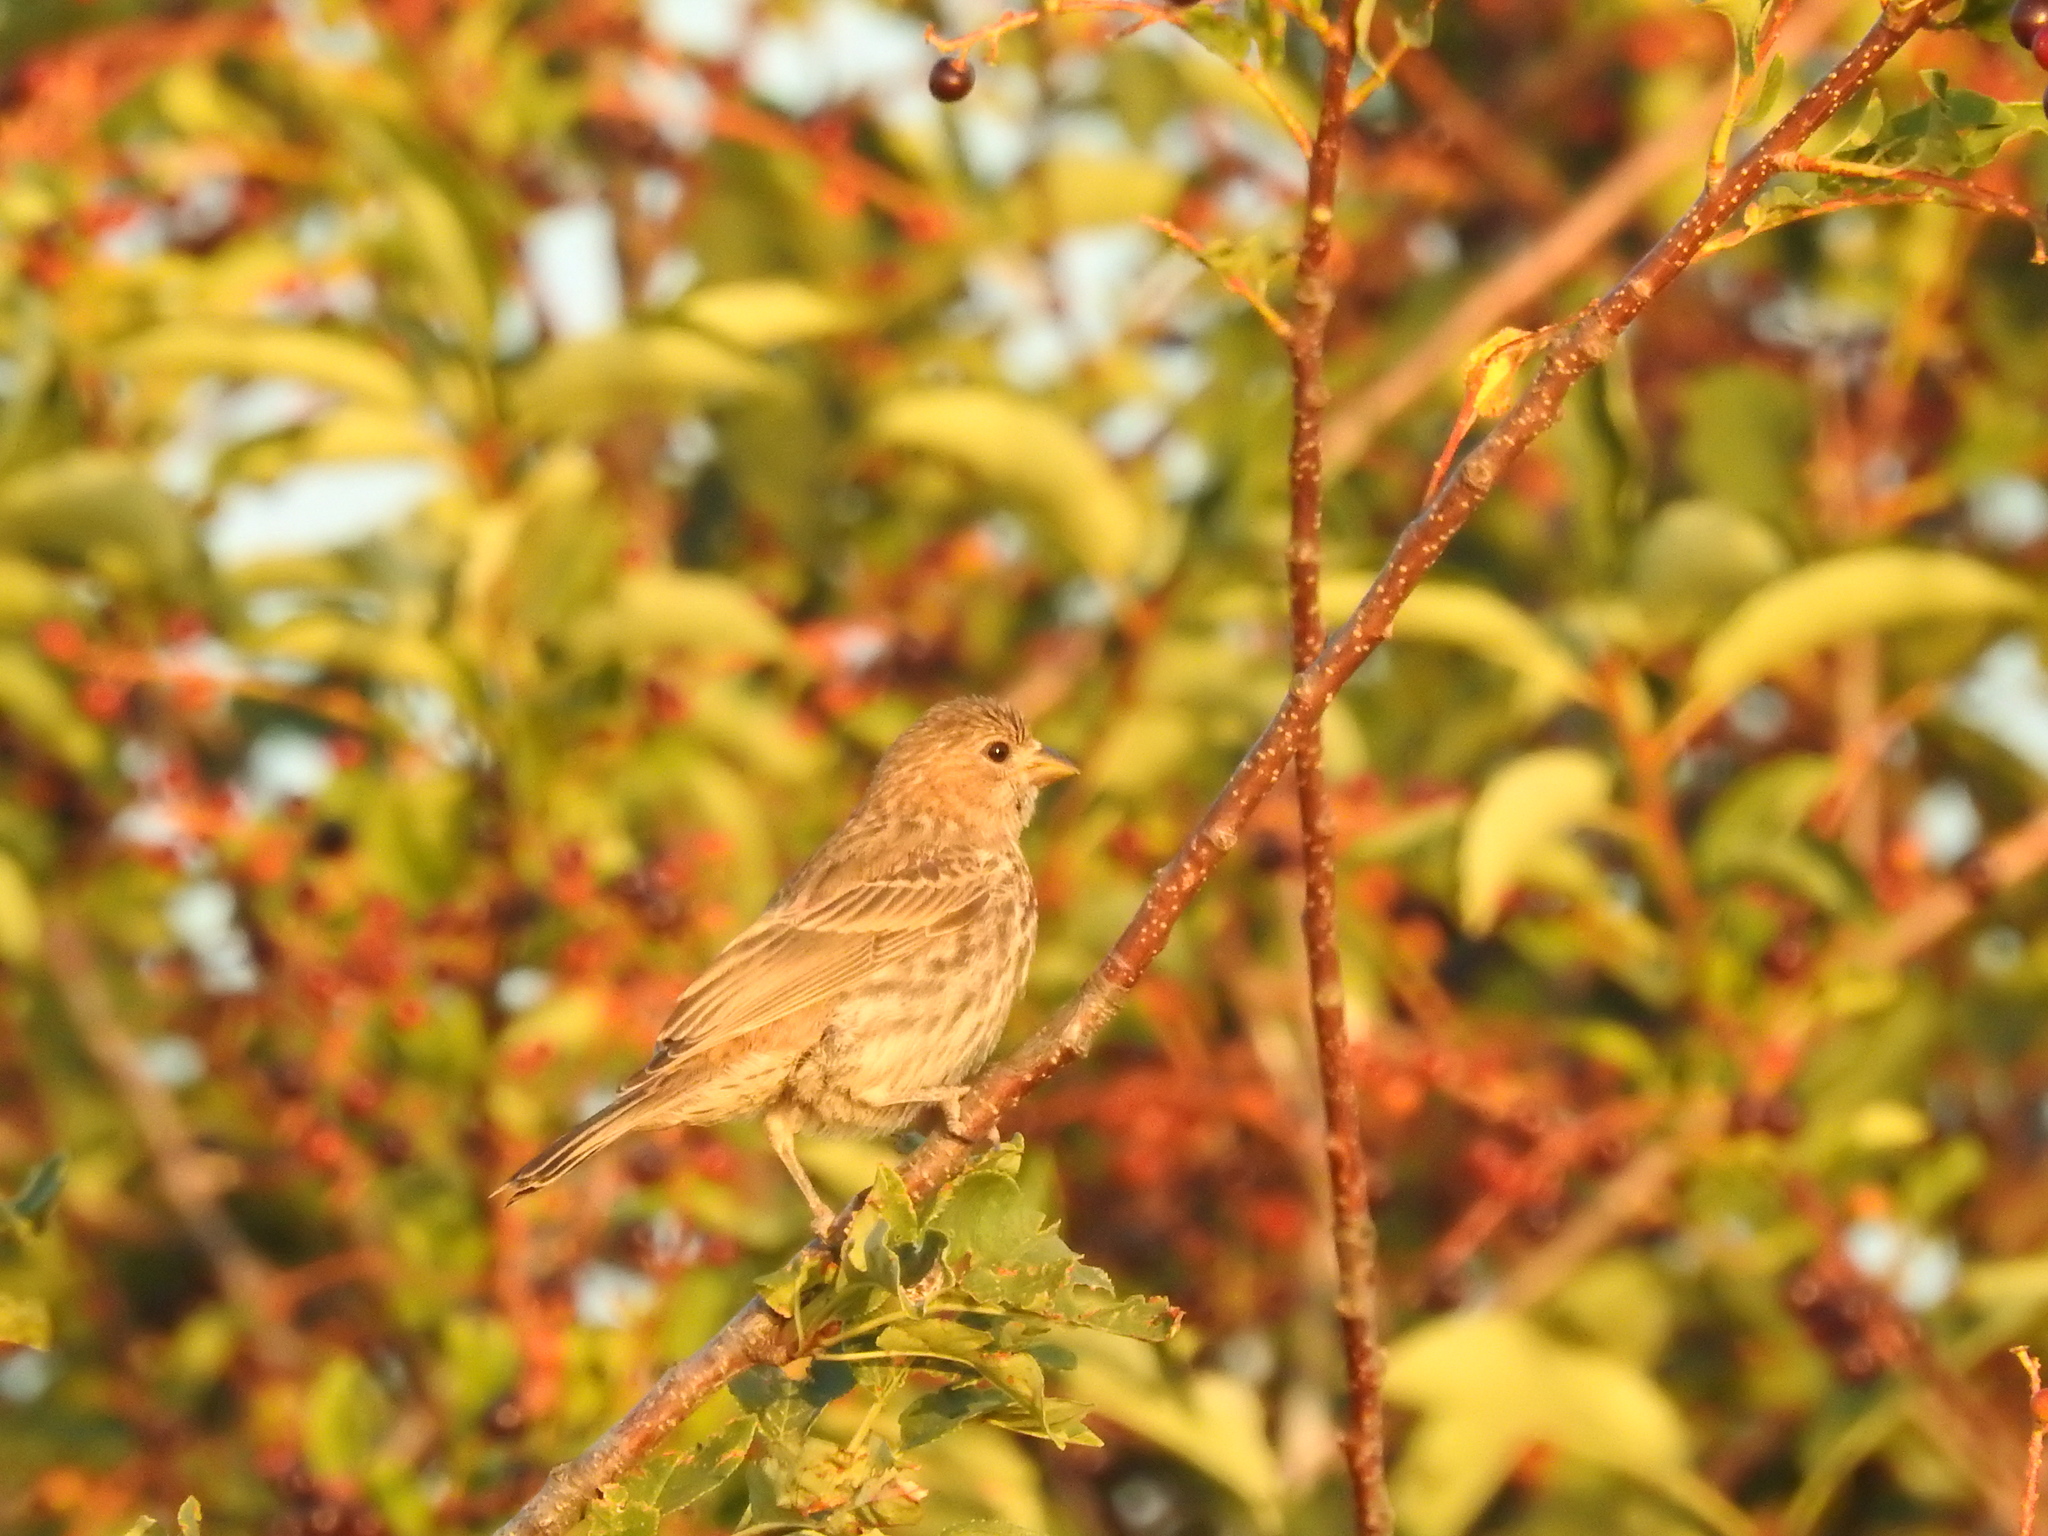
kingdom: Animalia
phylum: Chordata
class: Aves
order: Passeriformes
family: Fringillidae
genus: Haemorhous
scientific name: Haemorhous mexicanus
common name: House finch
